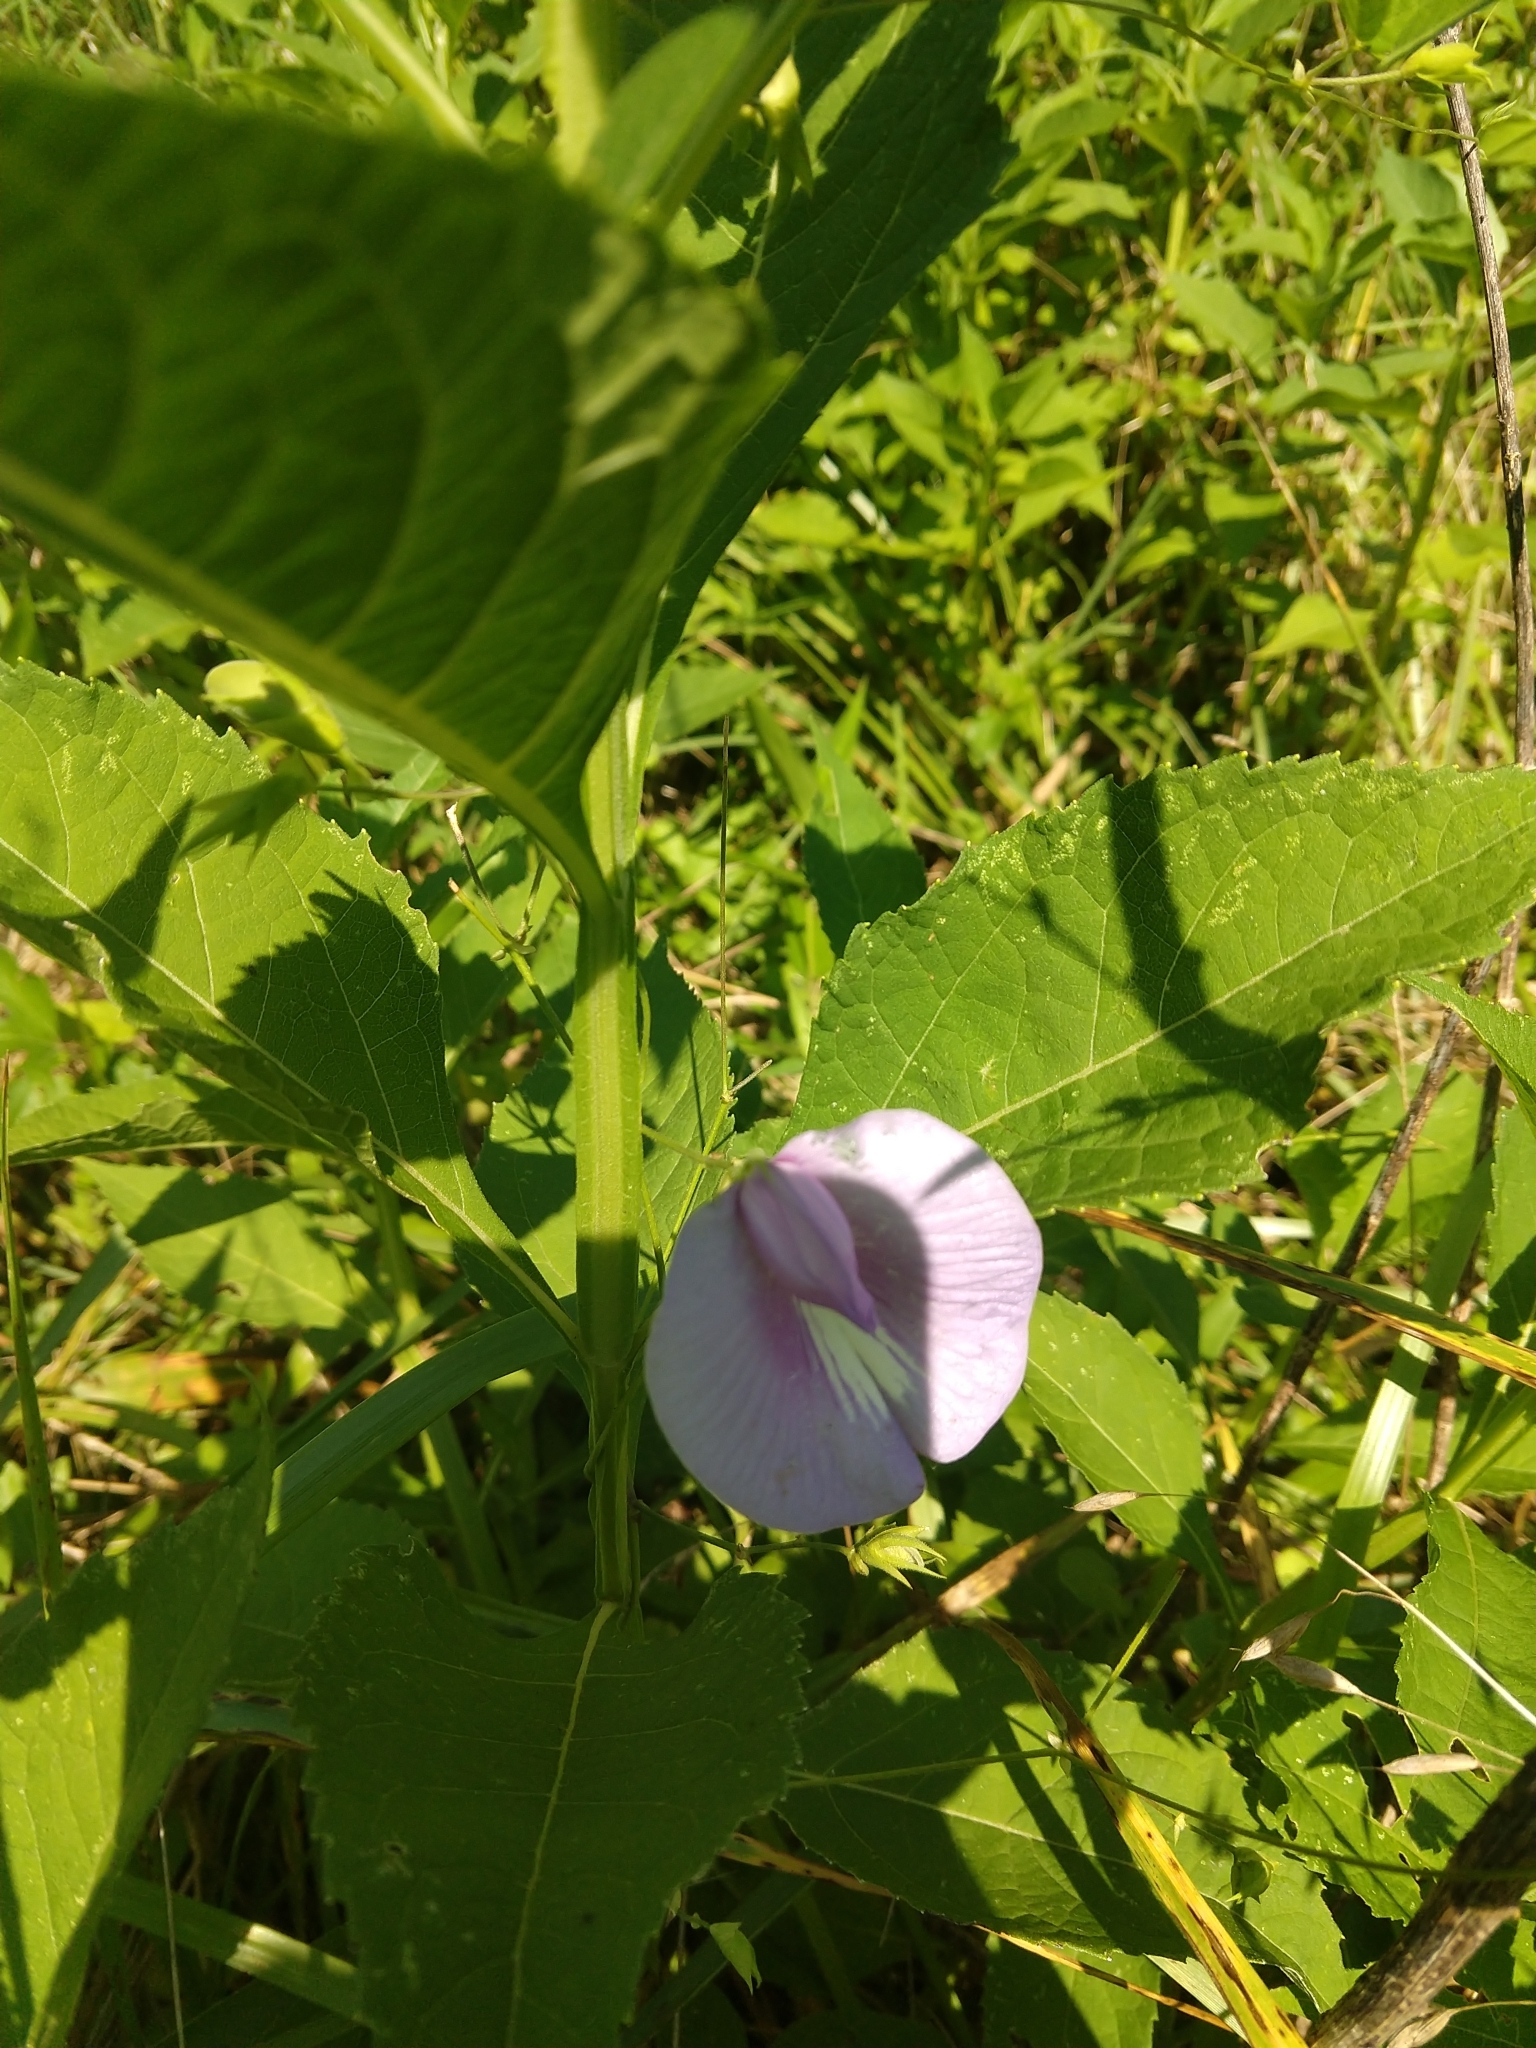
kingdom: Plantae
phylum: Tracheophyta
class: Magnoliopsida
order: Fabales
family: Fabaceae
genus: Centrosema
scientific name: Centrosema virginianum
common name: Butterfly-pea
